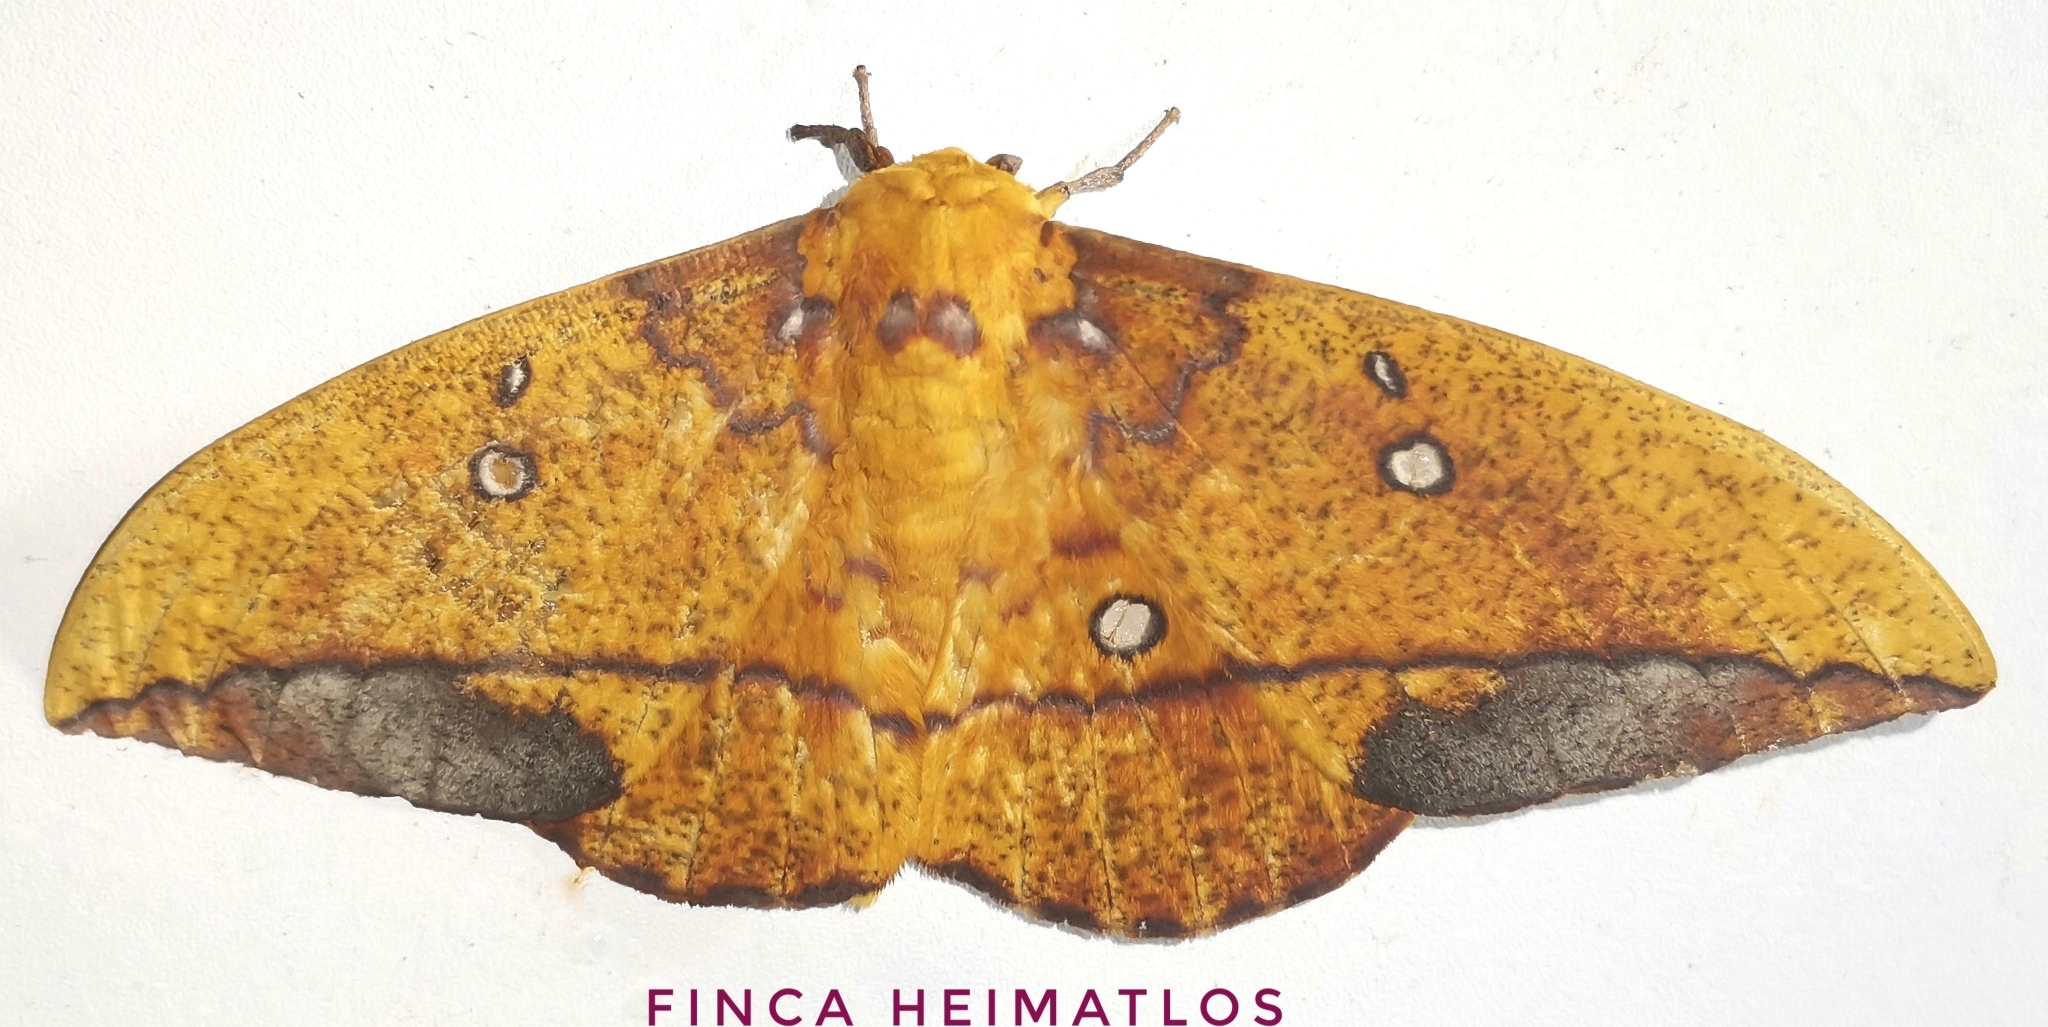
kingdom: Animalia
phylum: Arthropoda
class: Insecta
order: Lepidoptera
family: Saturniidae
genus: Eacles
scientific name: Eacles penelope
